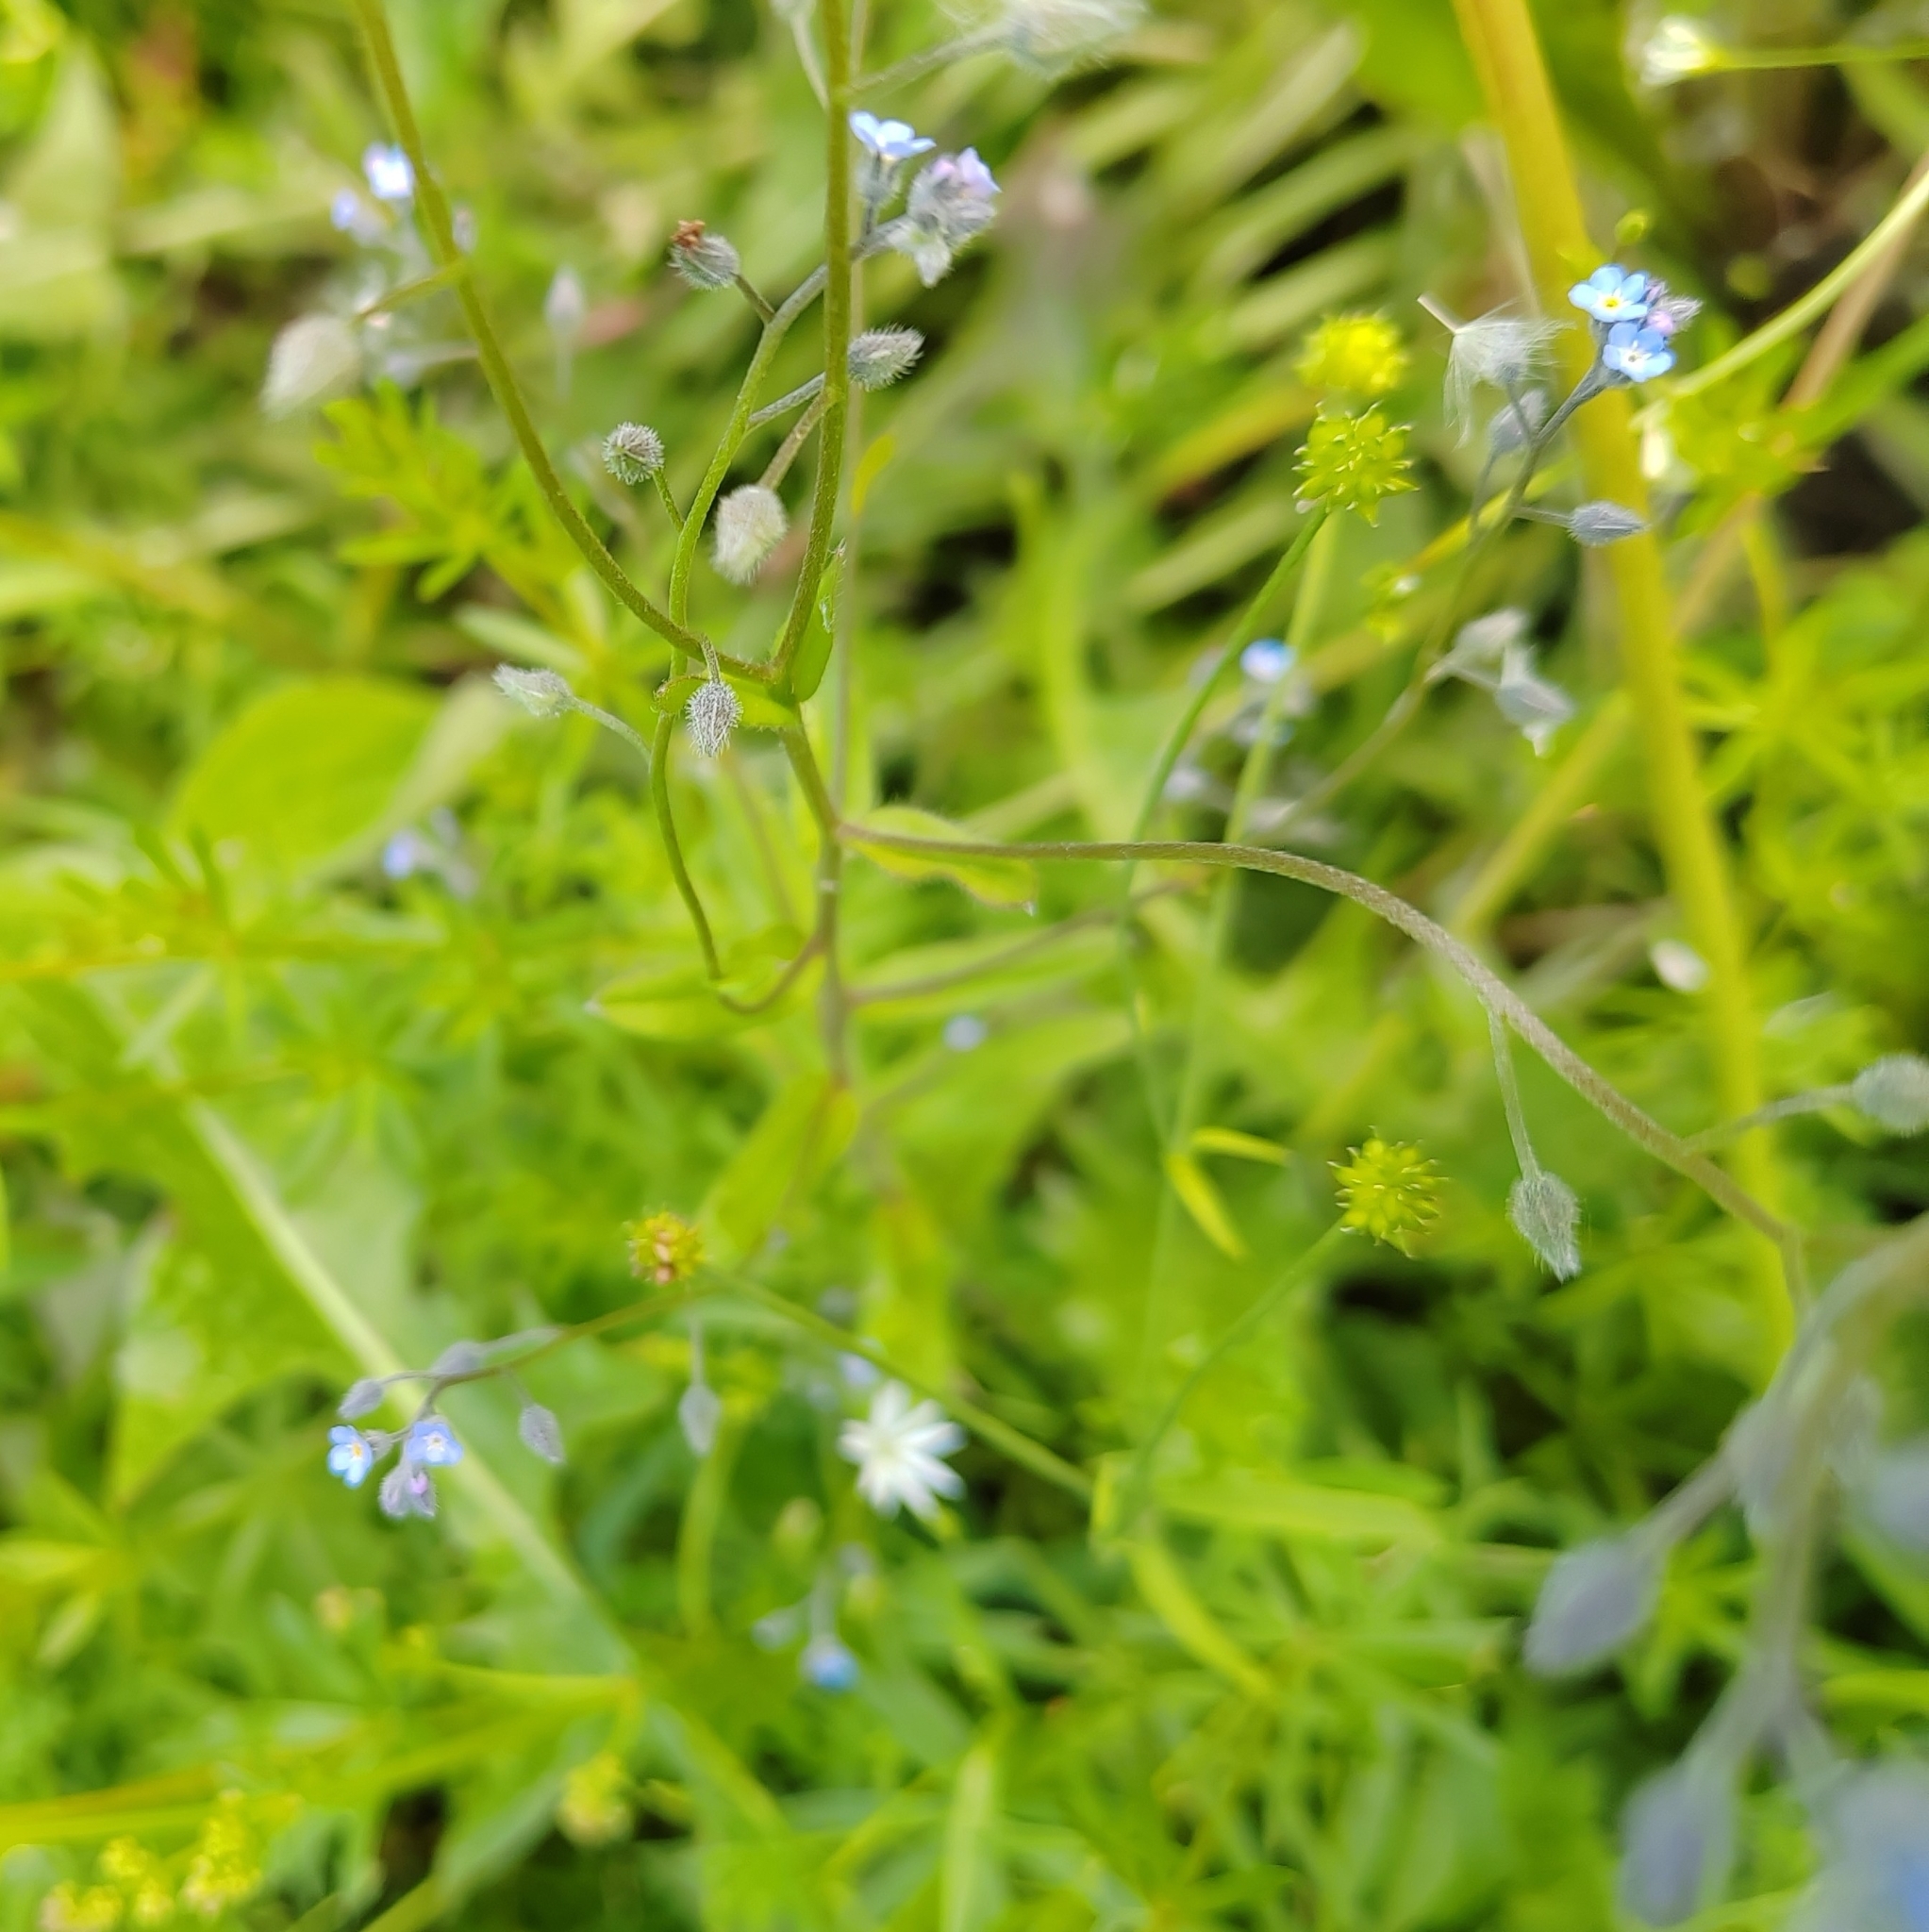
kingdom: Plantae
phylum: Tracheophyta
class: Magnoliopsida
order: Boraginales
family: Boraginaceae
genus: Myosotis
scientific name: Myosotis arvensis
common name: Field forget-me-not
